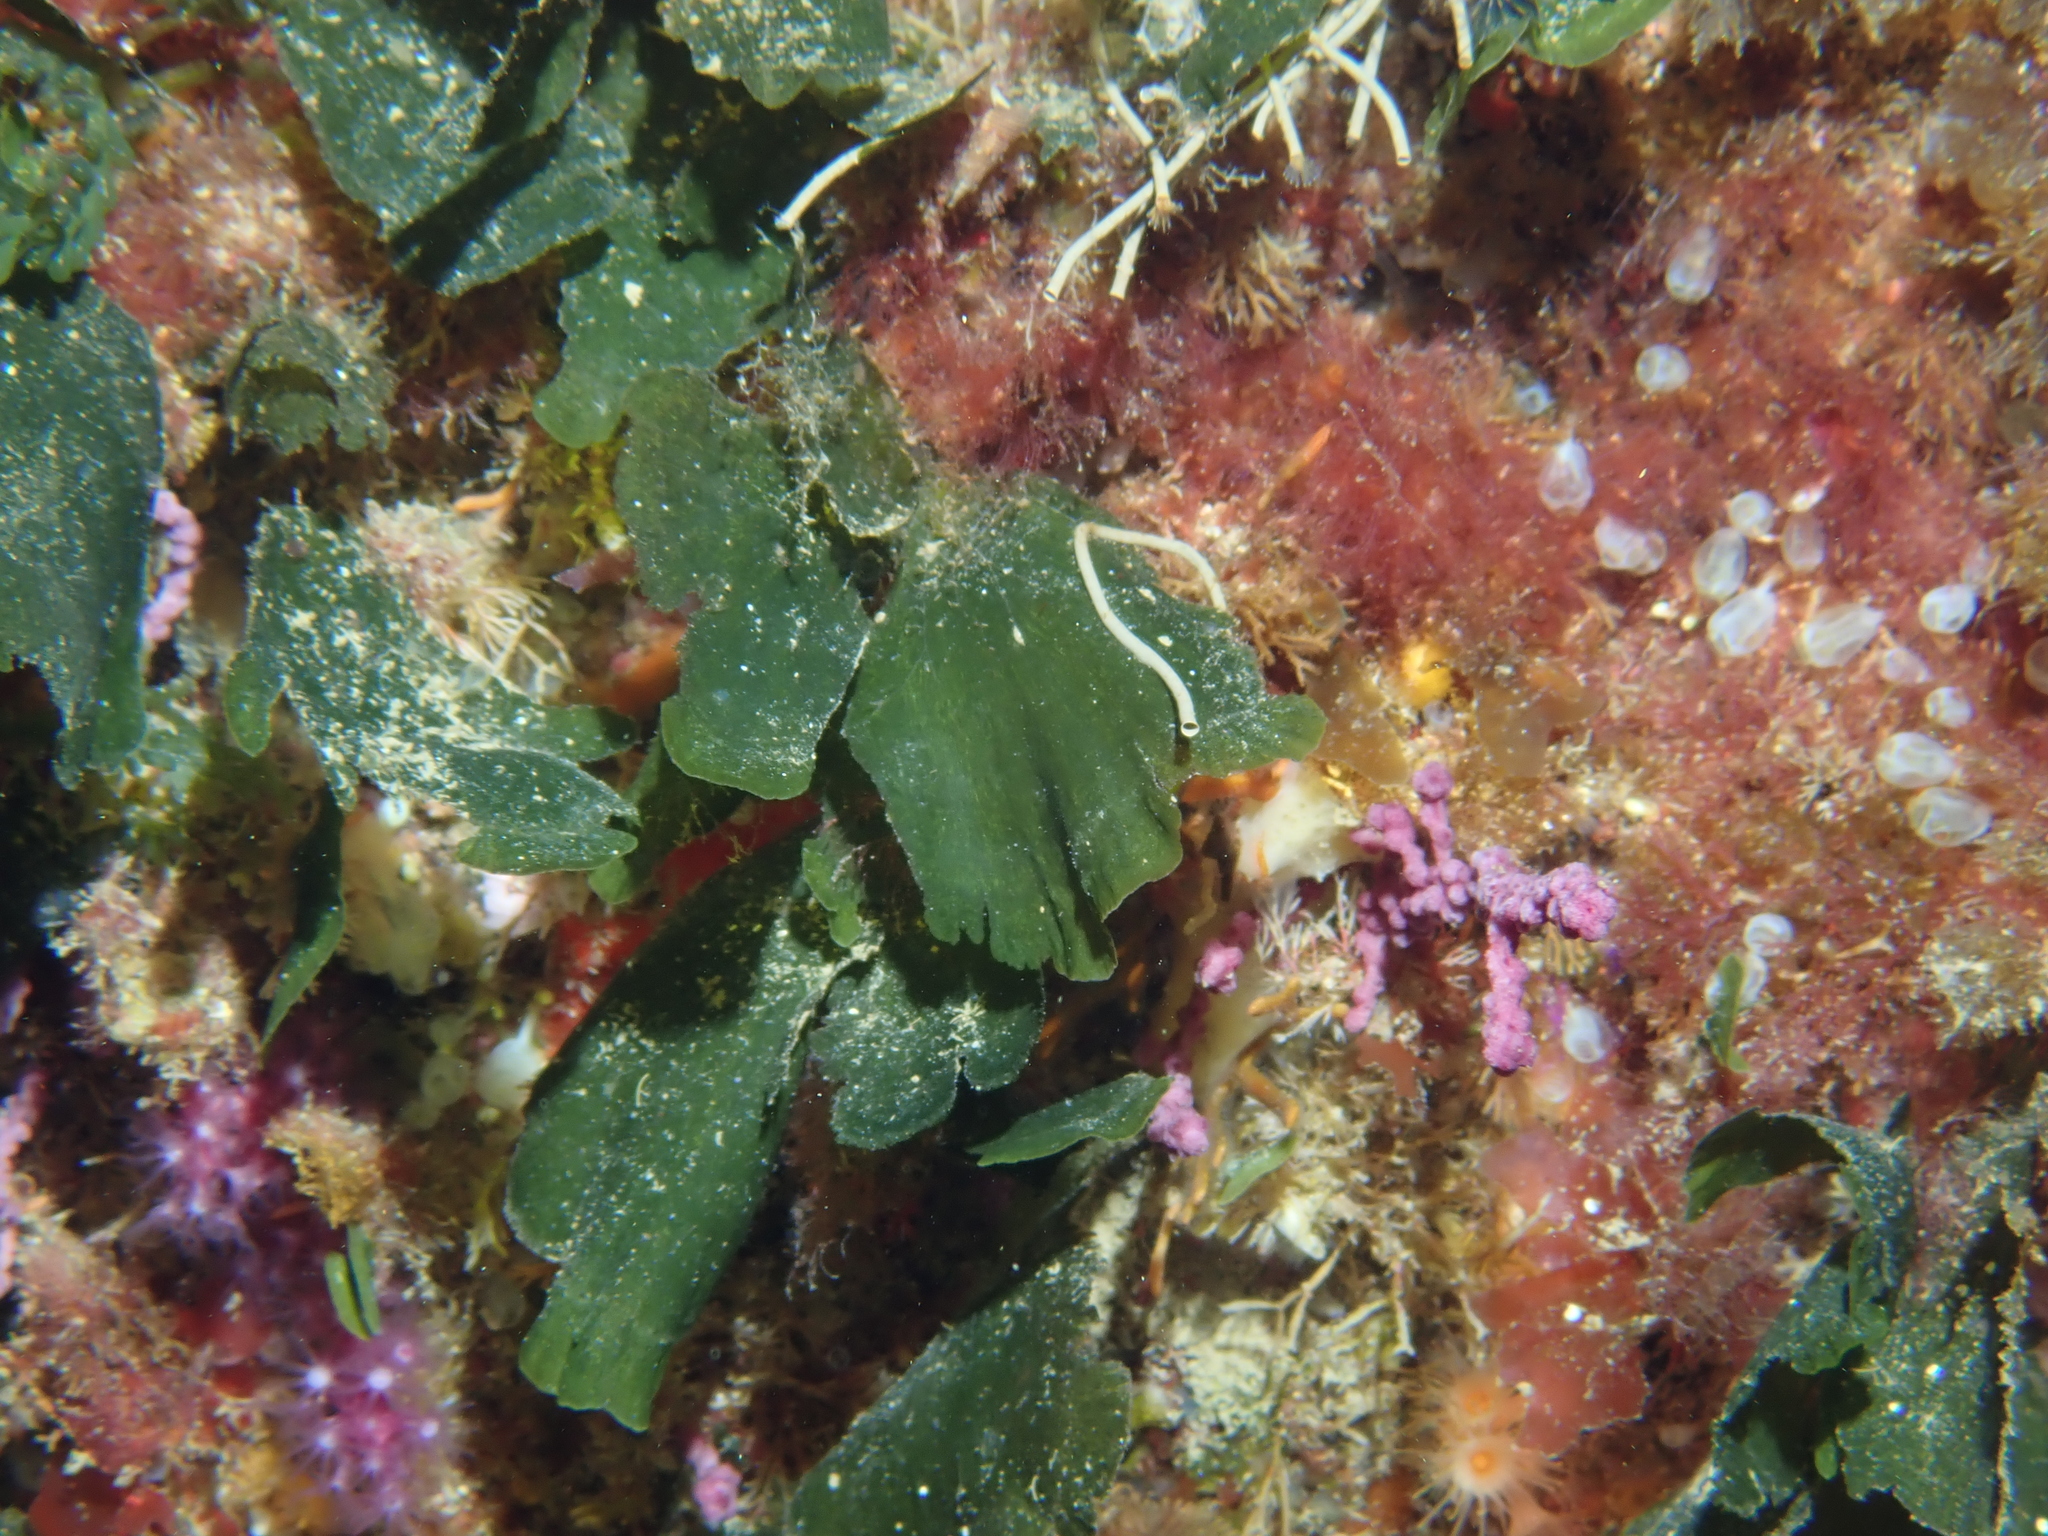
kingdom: Plantae
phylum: Chlorophyta
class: Ulvophyceae
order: Bryopsidales
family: Codiaceae
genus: Codium
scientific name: Codium Flabellia petiolata
